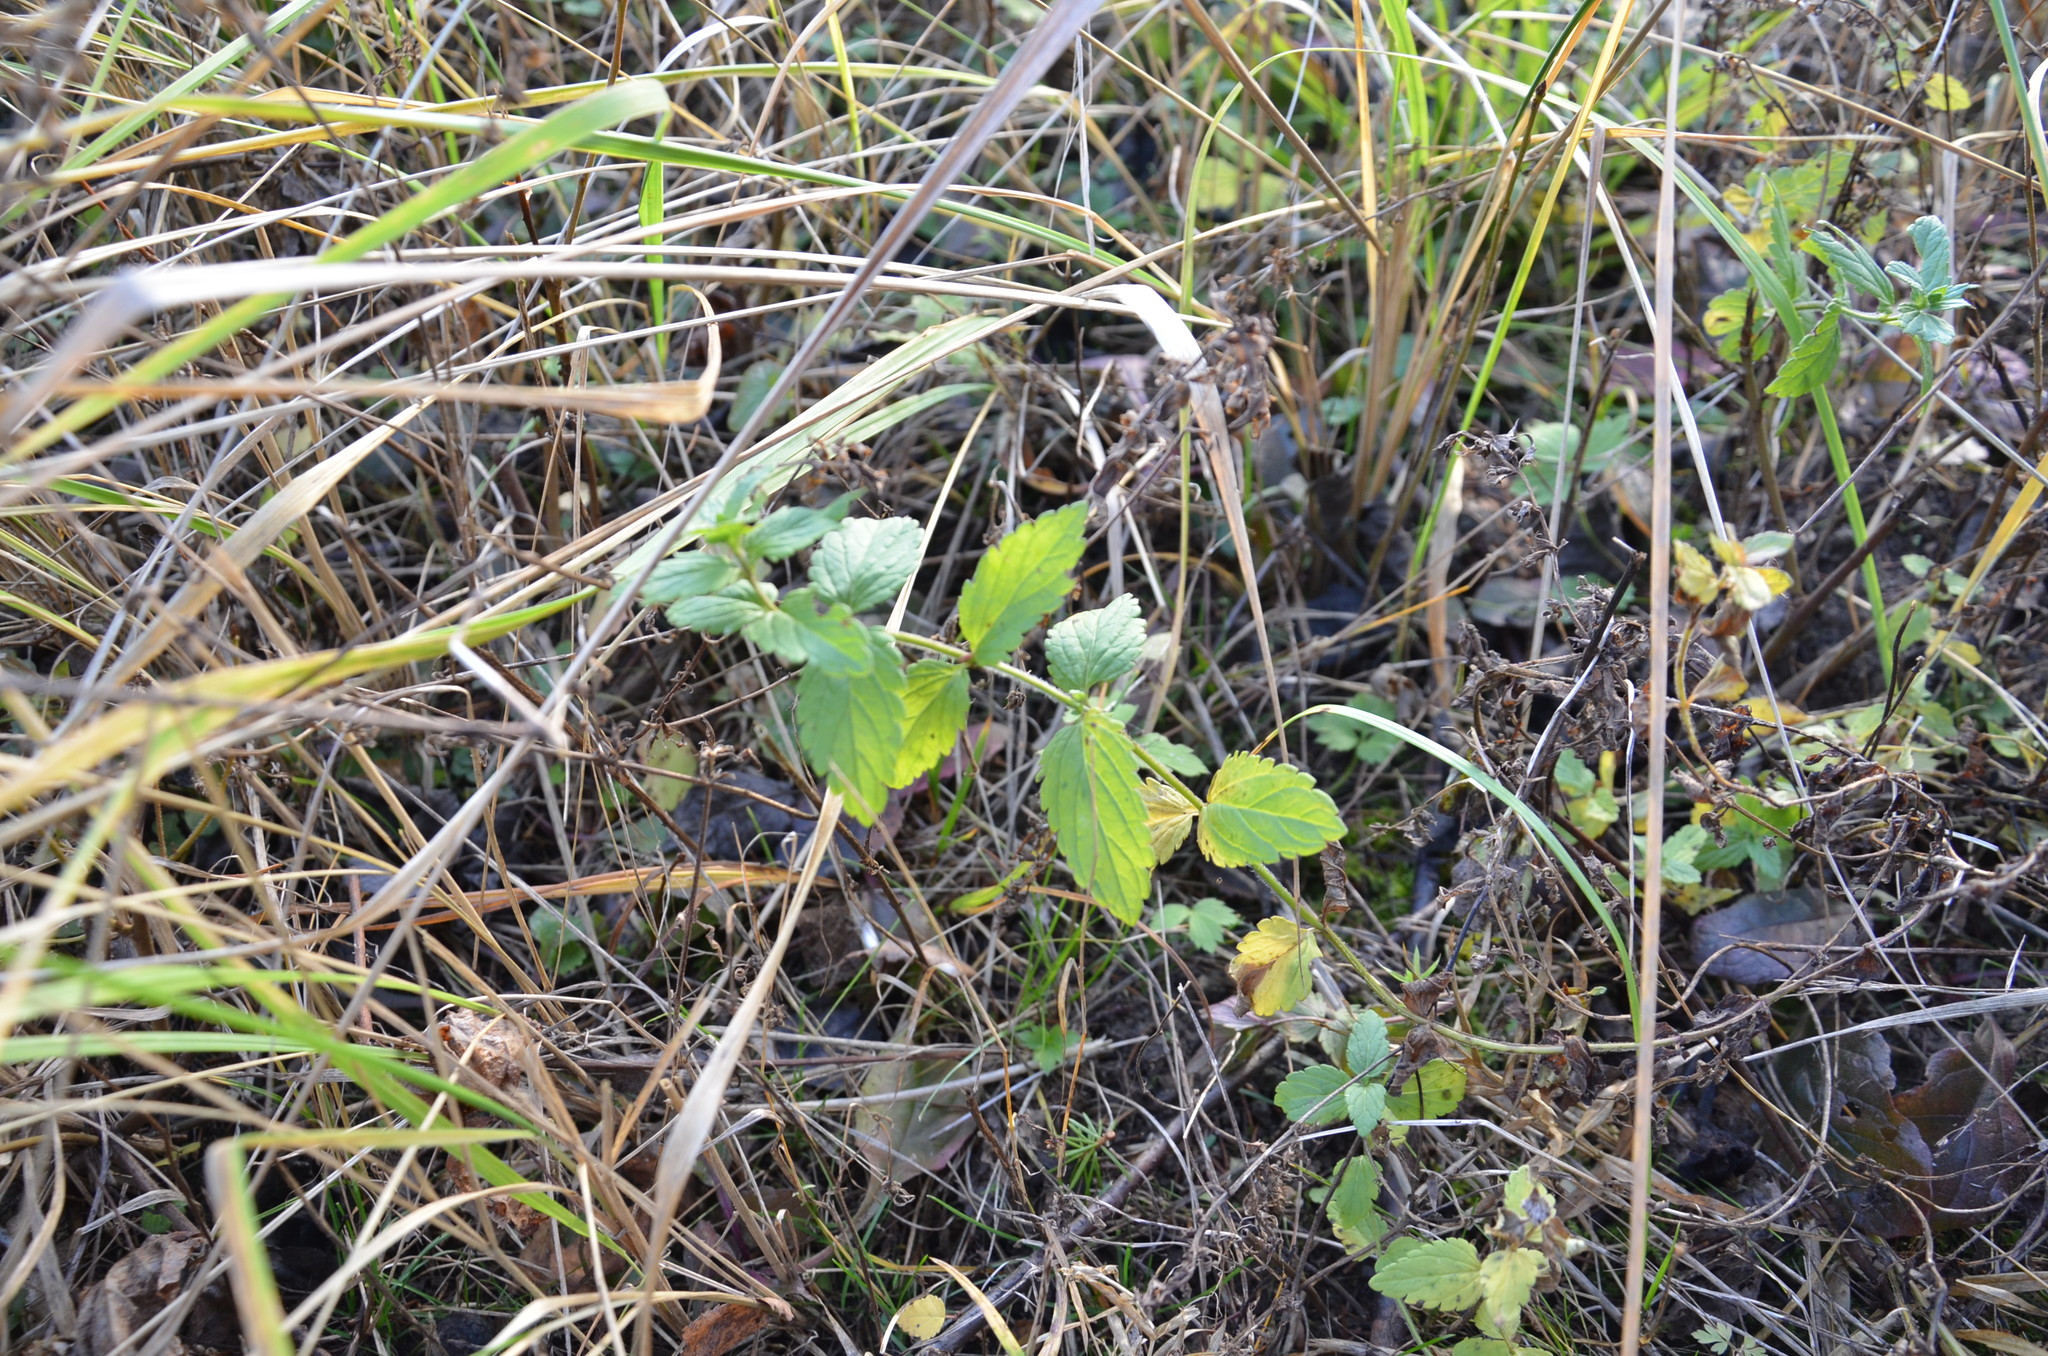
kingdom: Plantae
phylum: Tracheophyta
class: Magnoliopsida
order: Lamiales
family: Plantaginaceae
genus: Veronica
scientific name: Veronica chamaedrys
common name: Germander speedwell
